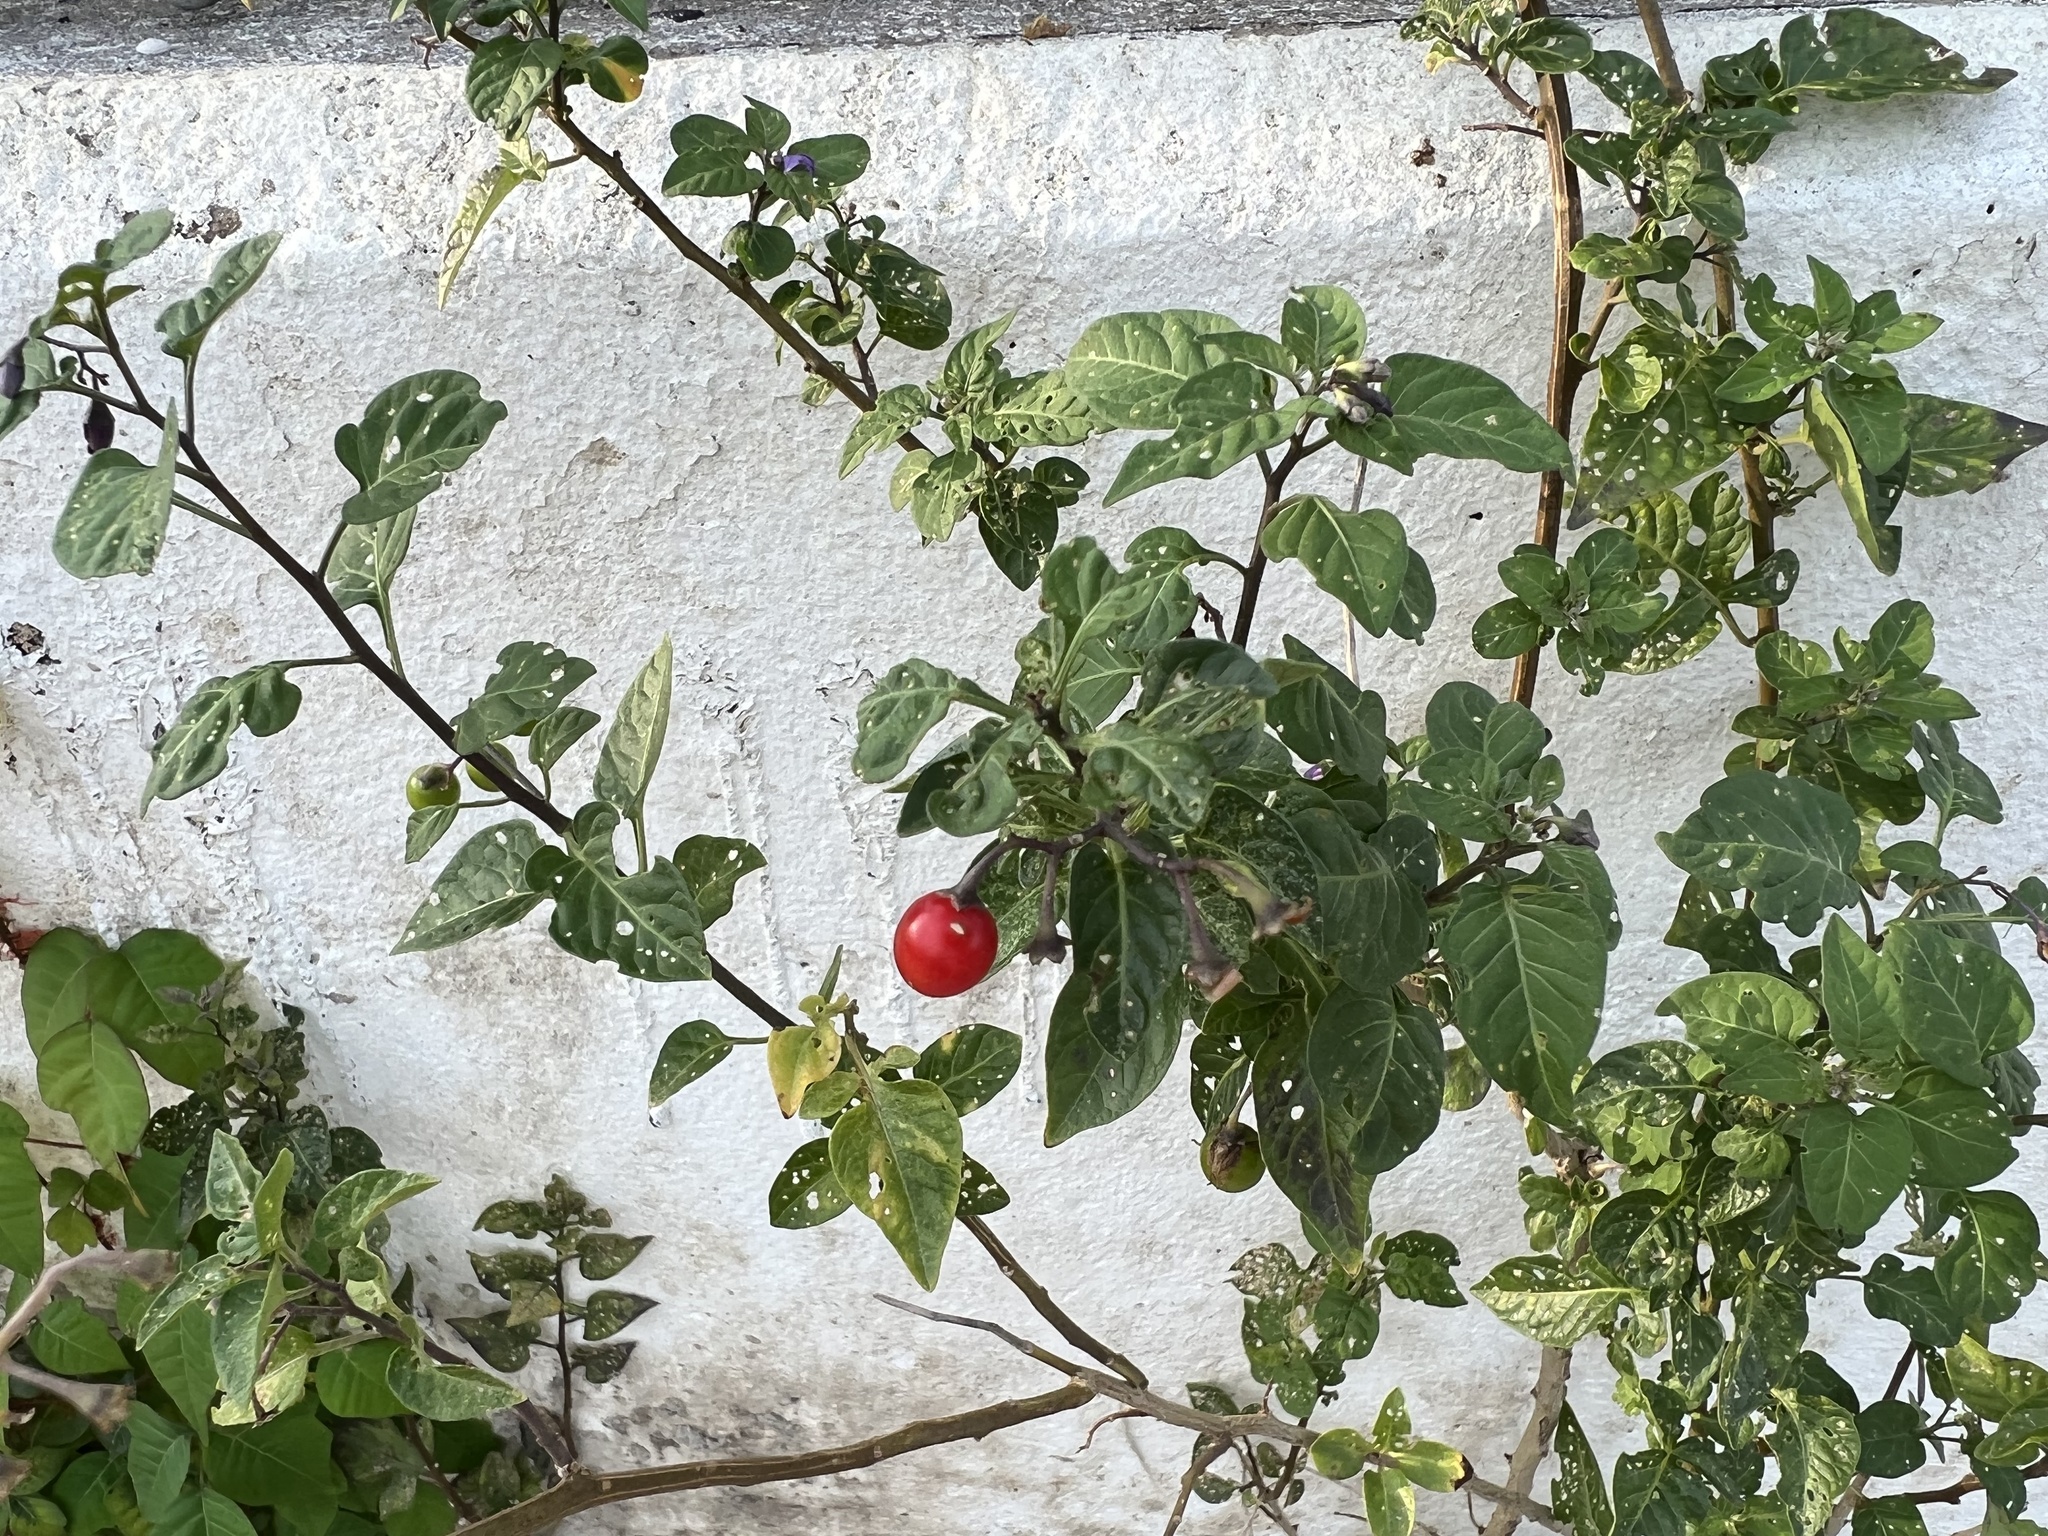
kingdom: Plantae
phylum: Tracheophyta
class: Magnoliopsida
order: Solanales
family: Solanaceae
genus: Solanum
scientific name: Solanum dulcamara
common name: Climbing nightshade
